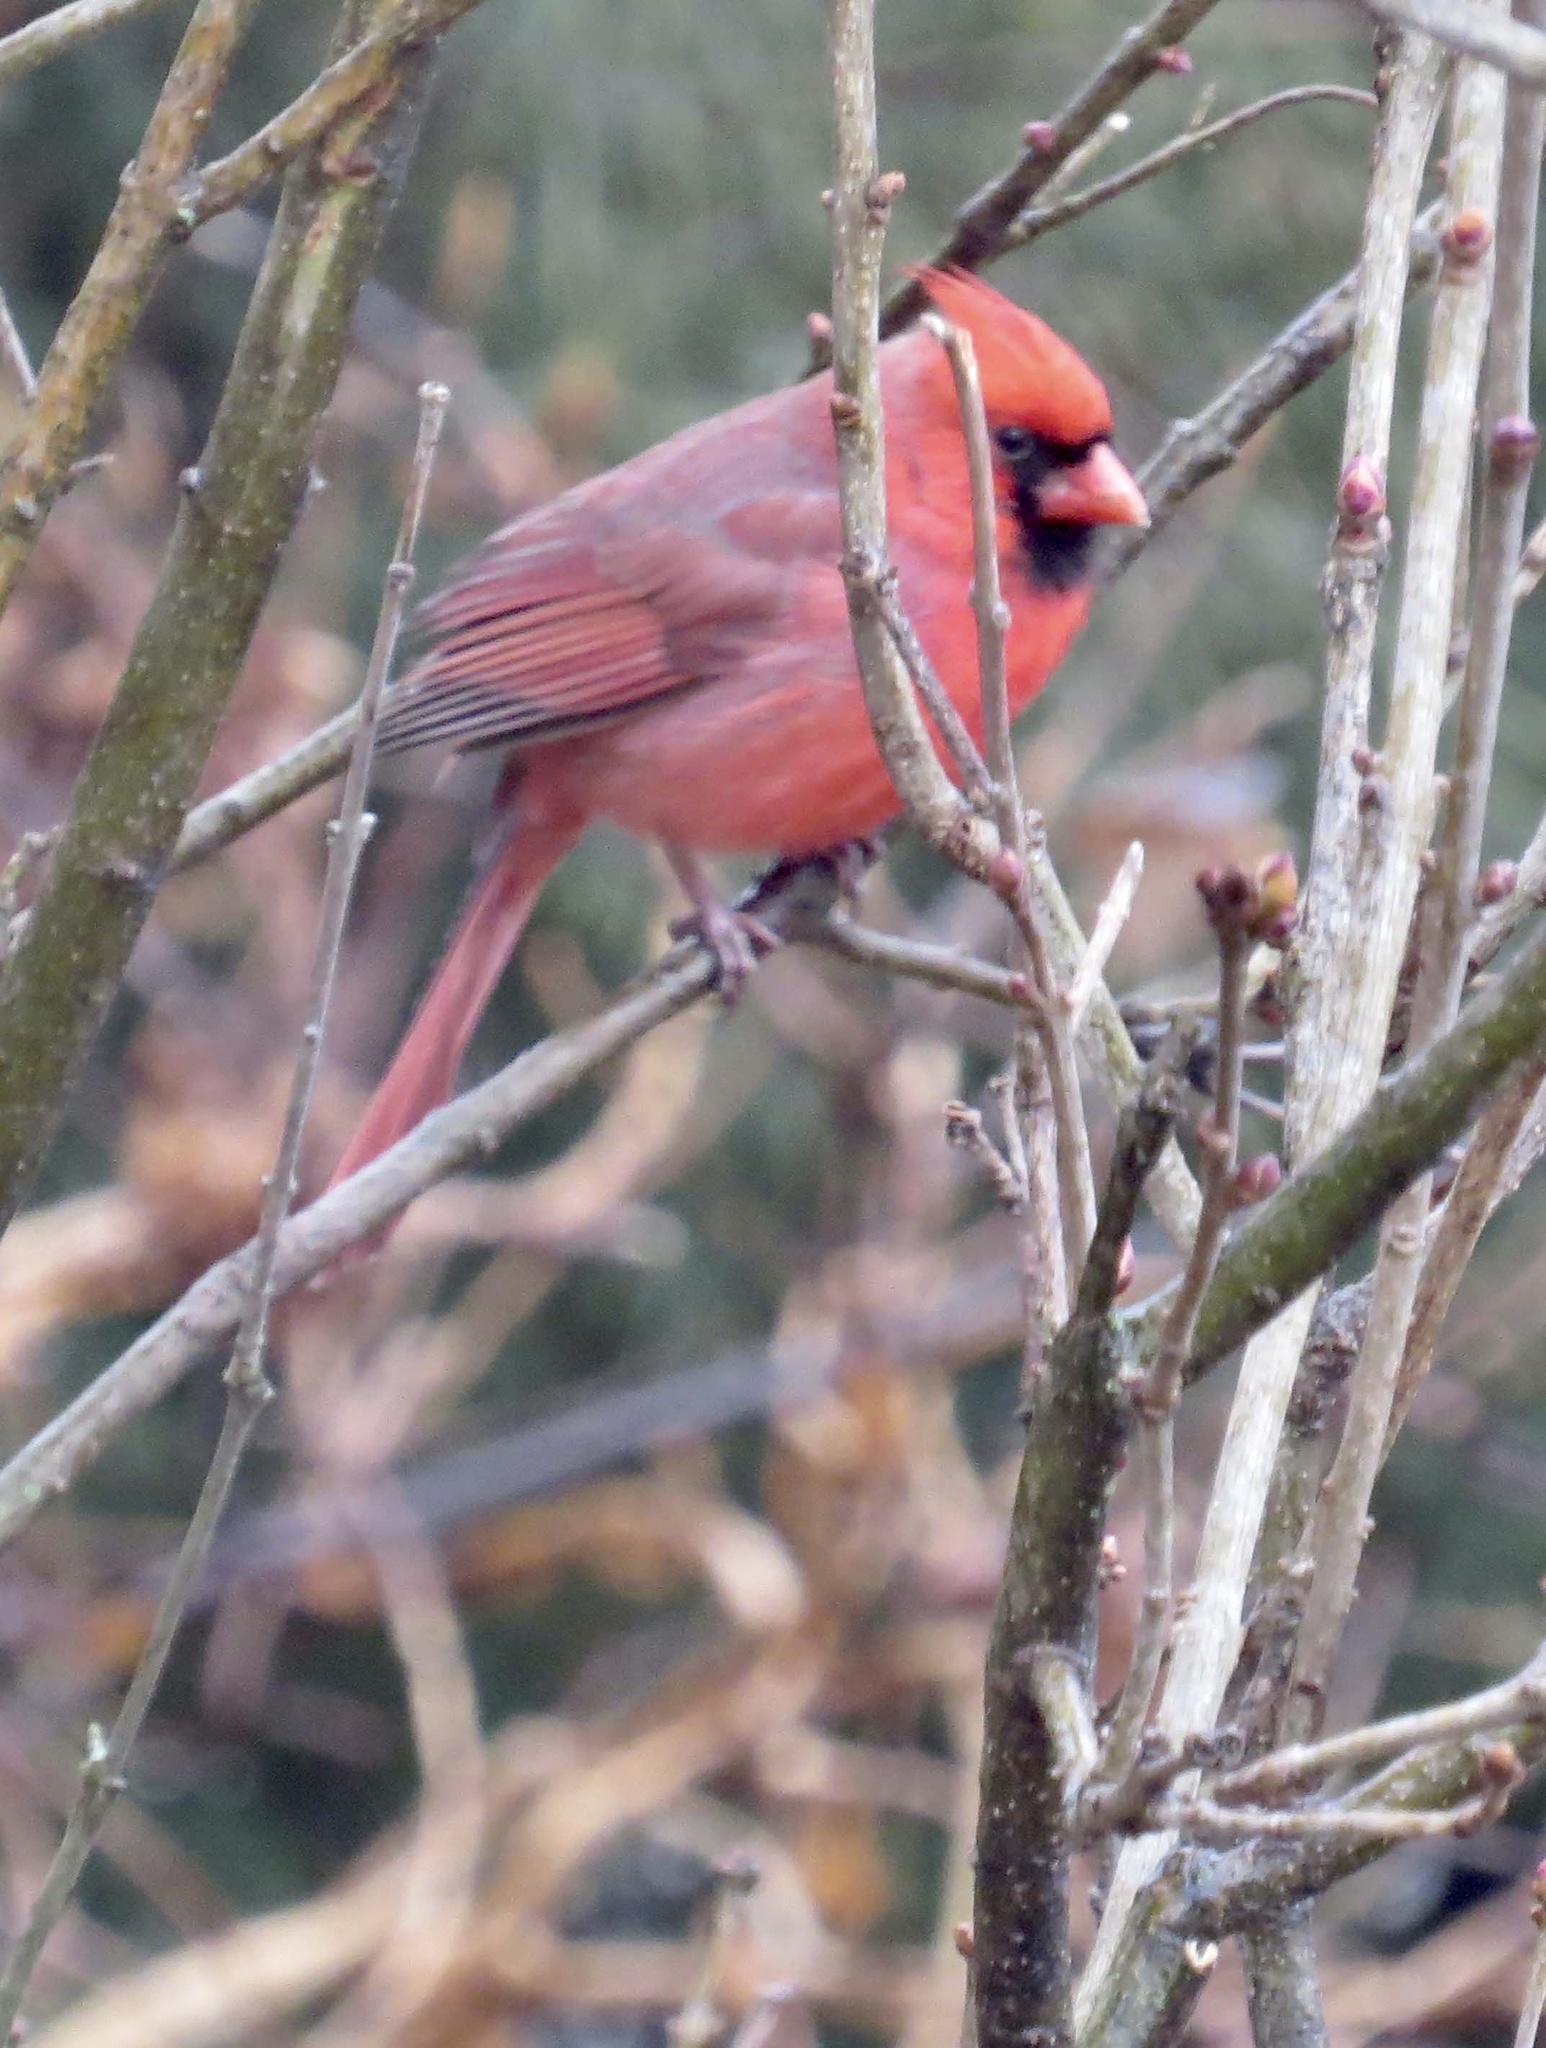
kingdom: Animalia
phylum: Chordata
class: Aves
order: Passeriformes
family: Cardinalidae
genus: Cardinalis
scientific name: Cardinalis cardinalis
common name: Northern cardinal
